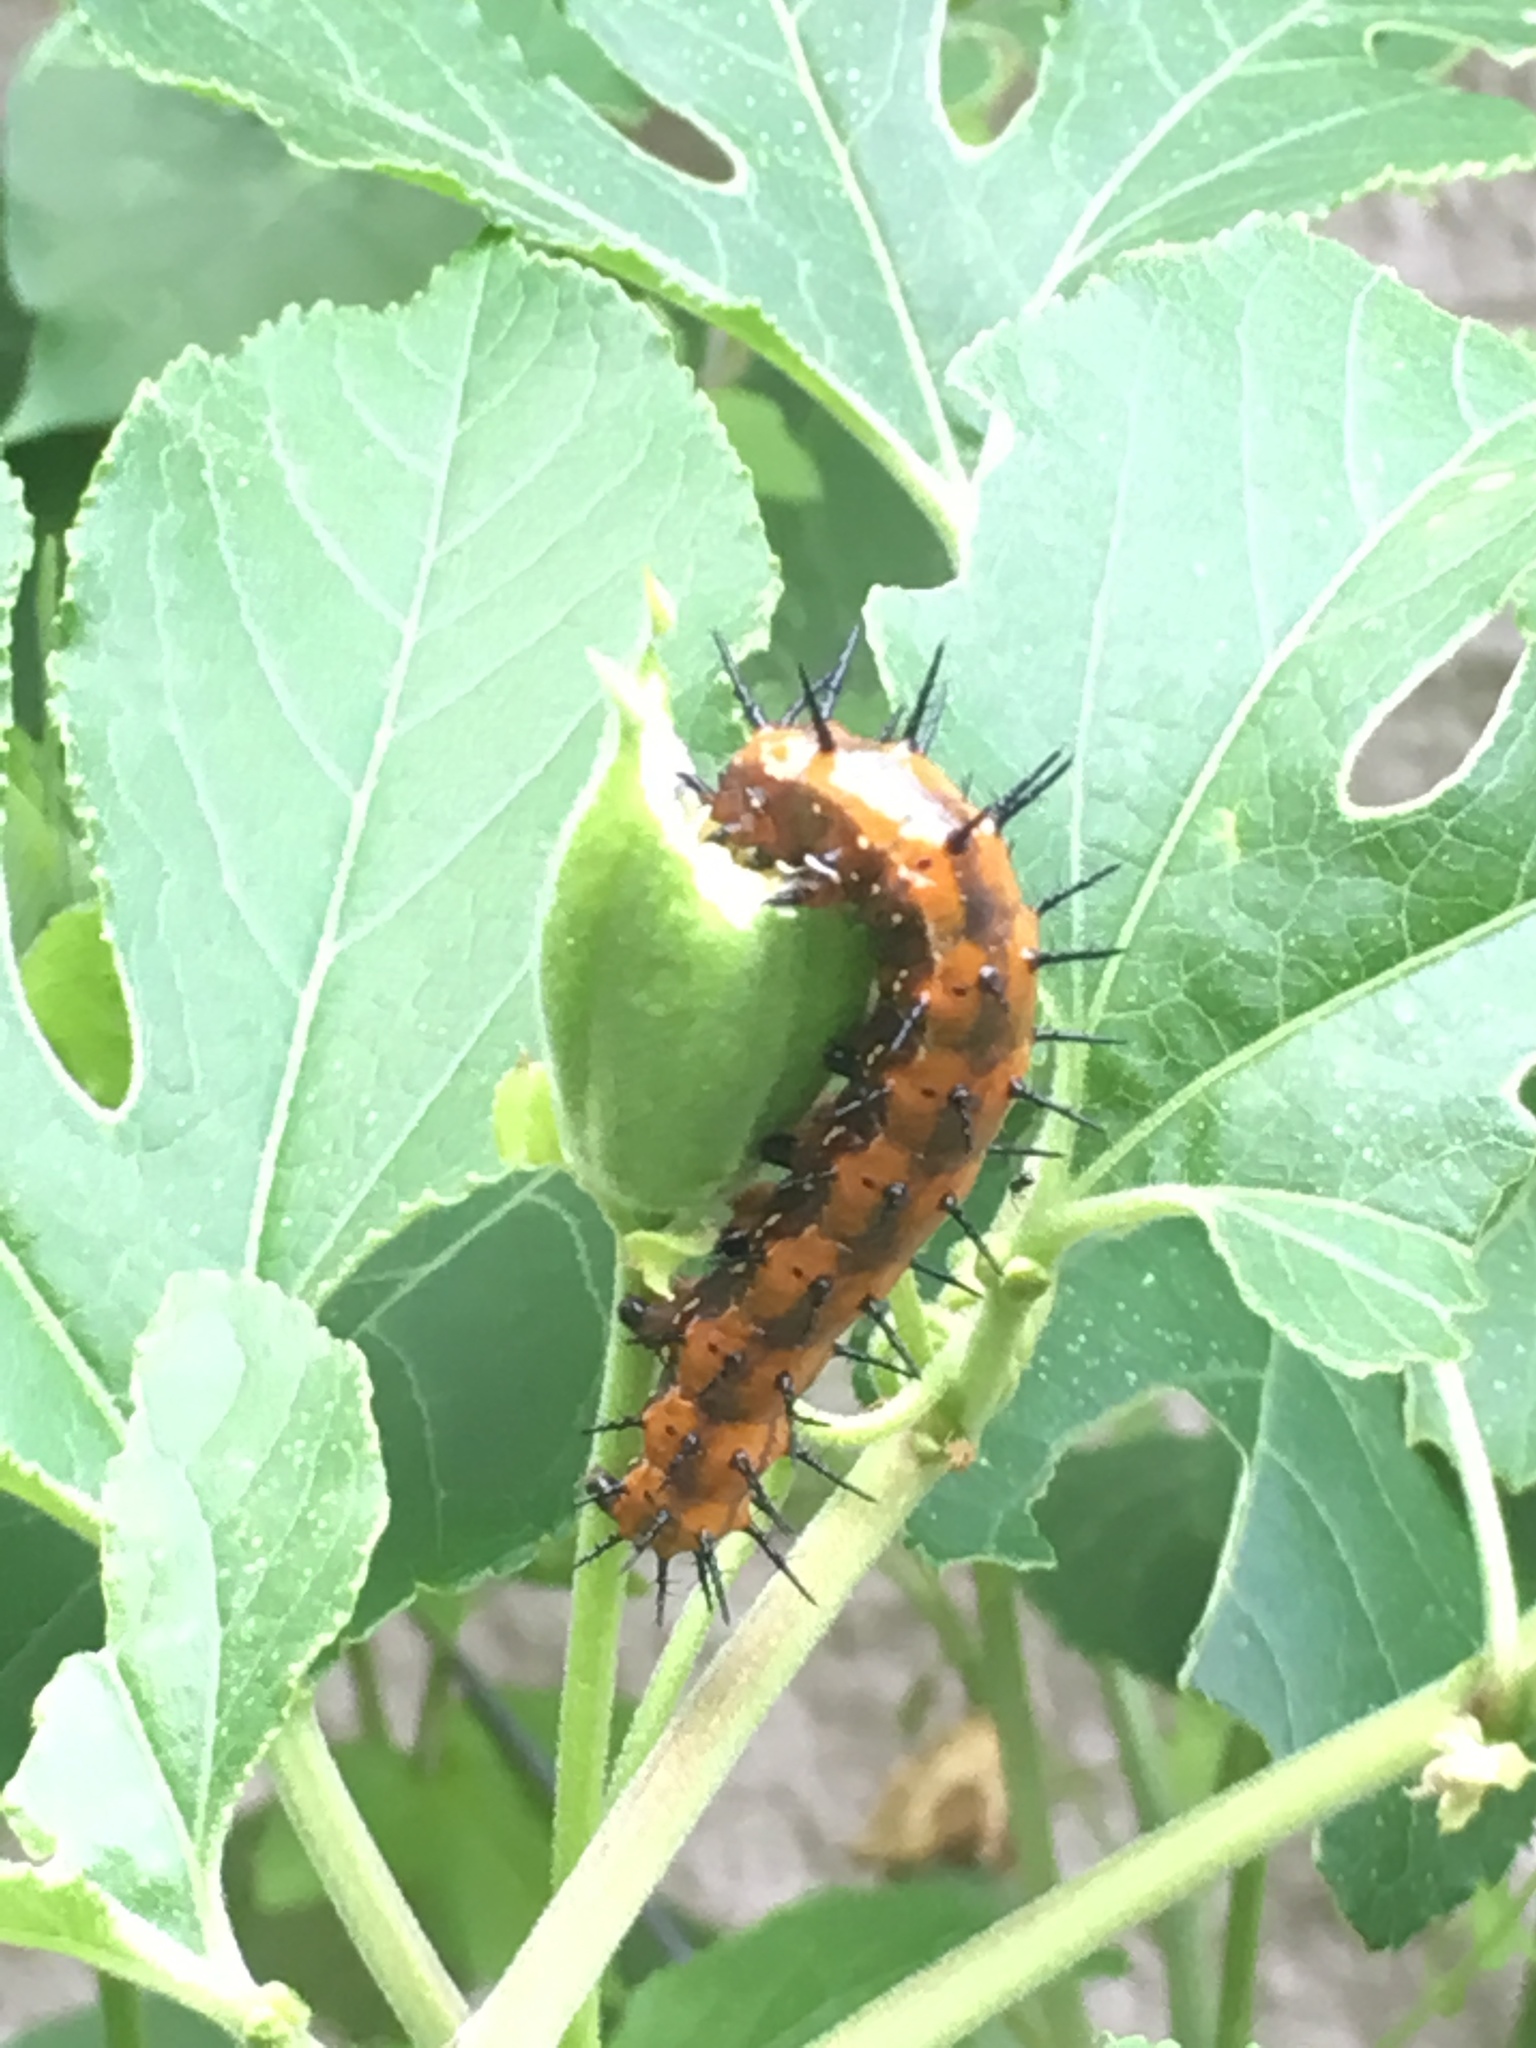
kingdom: Animalia
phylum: Arthropoda
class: Insecta
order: Lepidoptera
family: Nymphalidae
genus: Dione
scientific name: Dione vanillae
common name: Gulf fritillary
